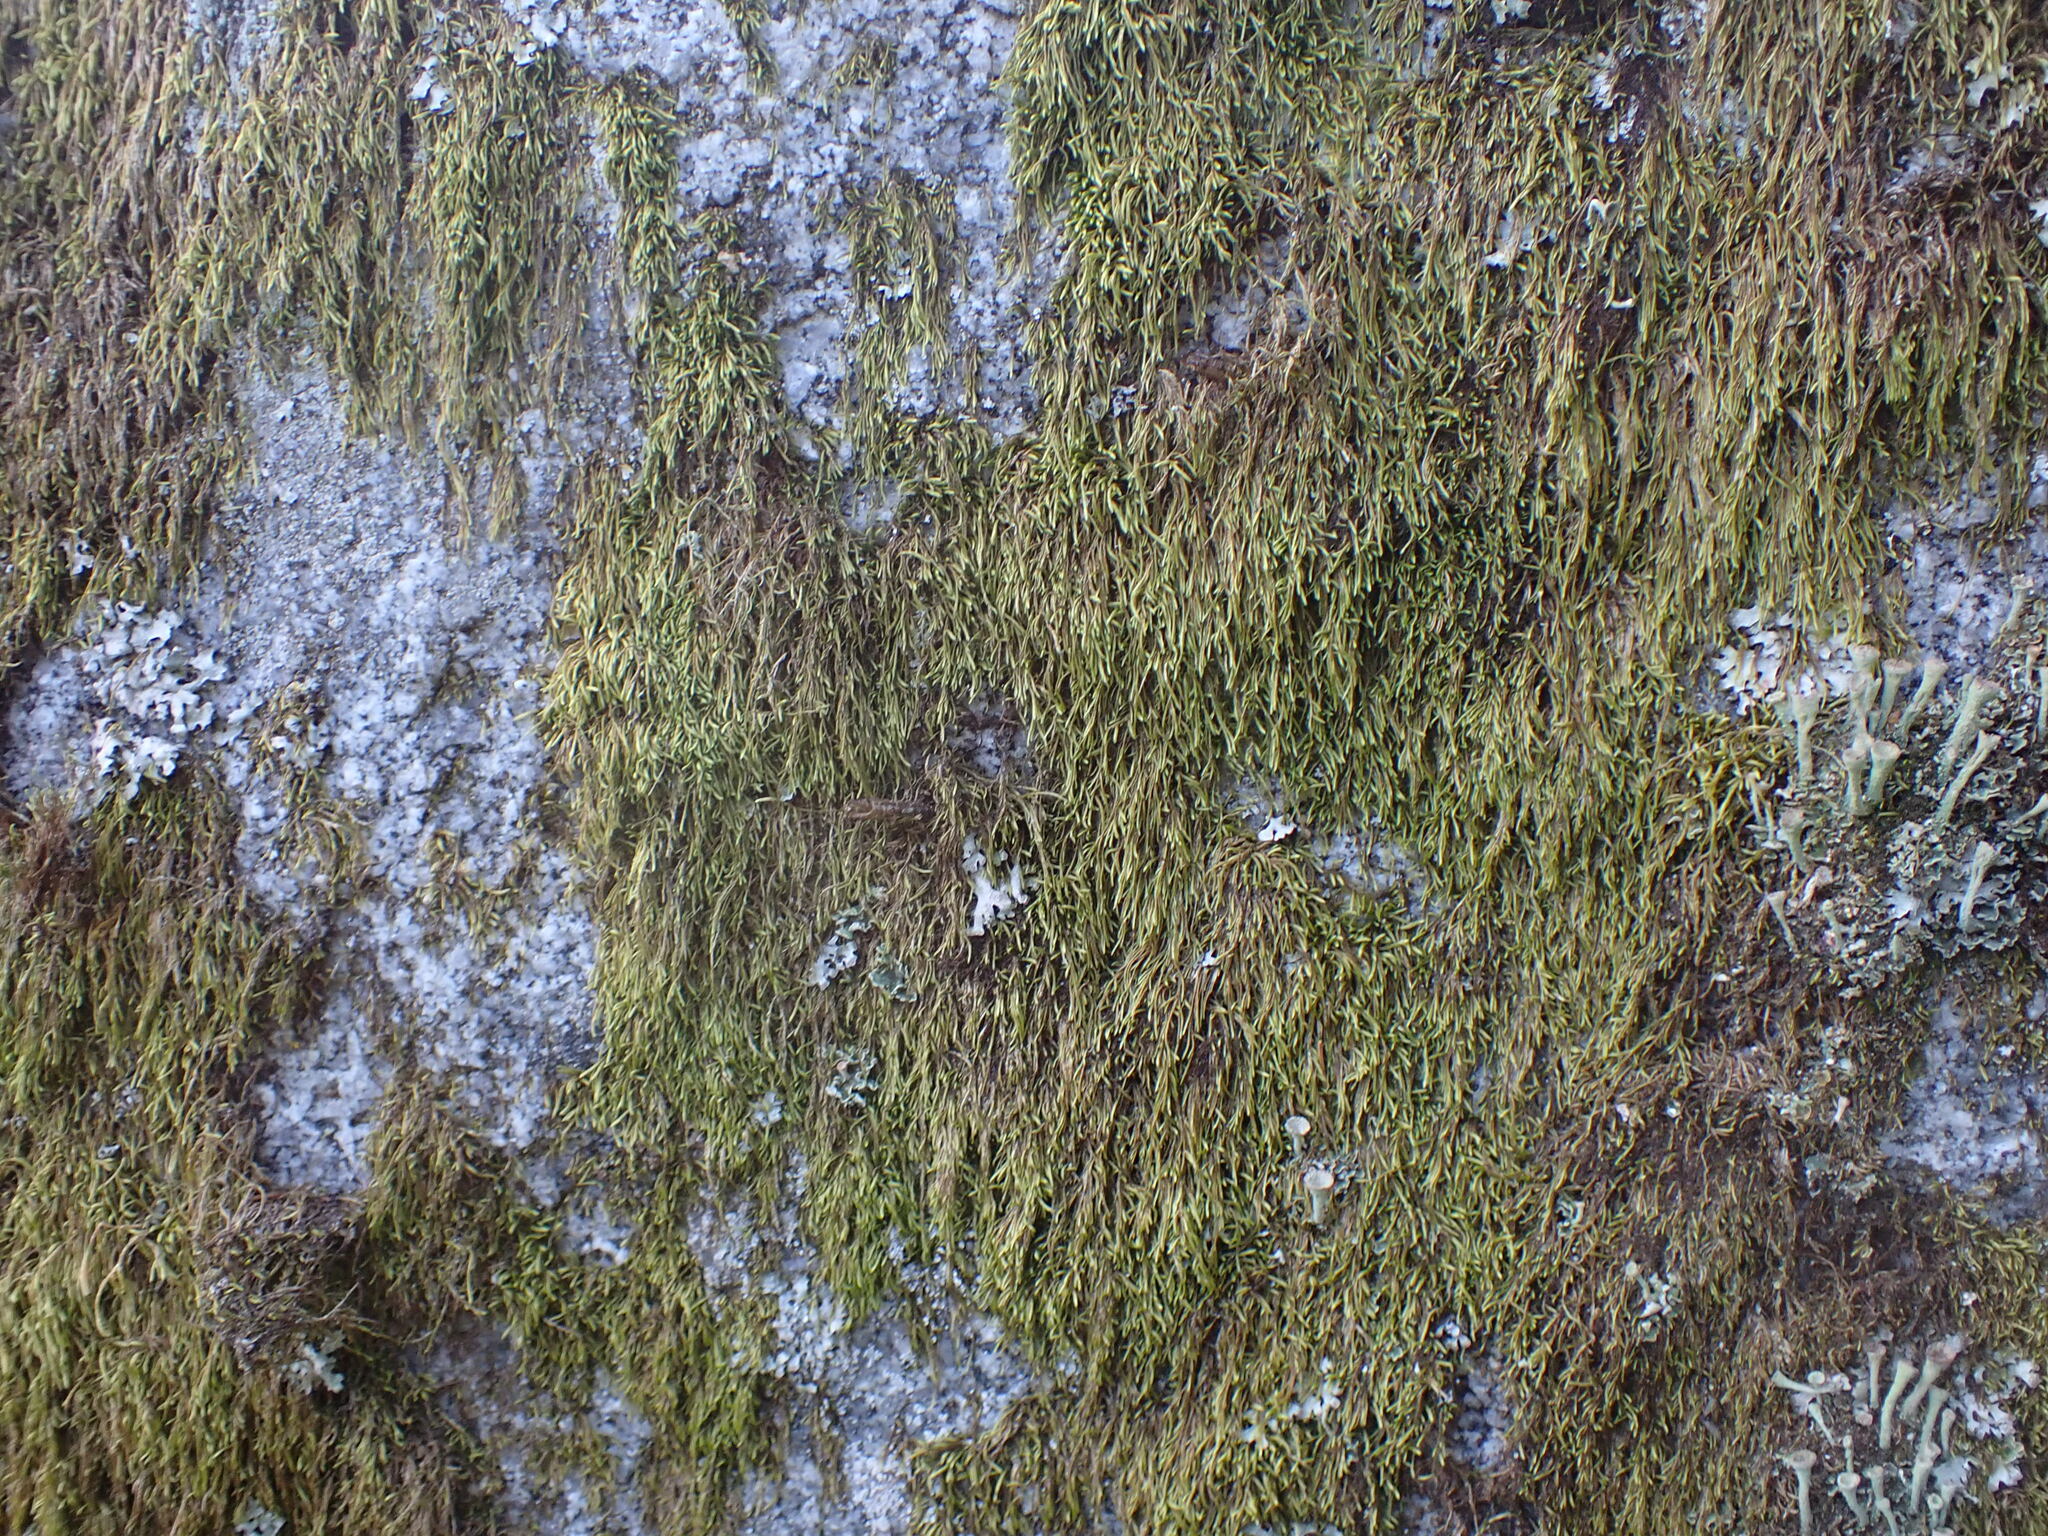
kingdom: Plantae
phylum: Bryophyta
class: Bryopsida
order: Hypnales
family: Pylaisiadelphaceae
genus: Trochophyllohypnum
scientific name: Trochophyllohypnum circinale
